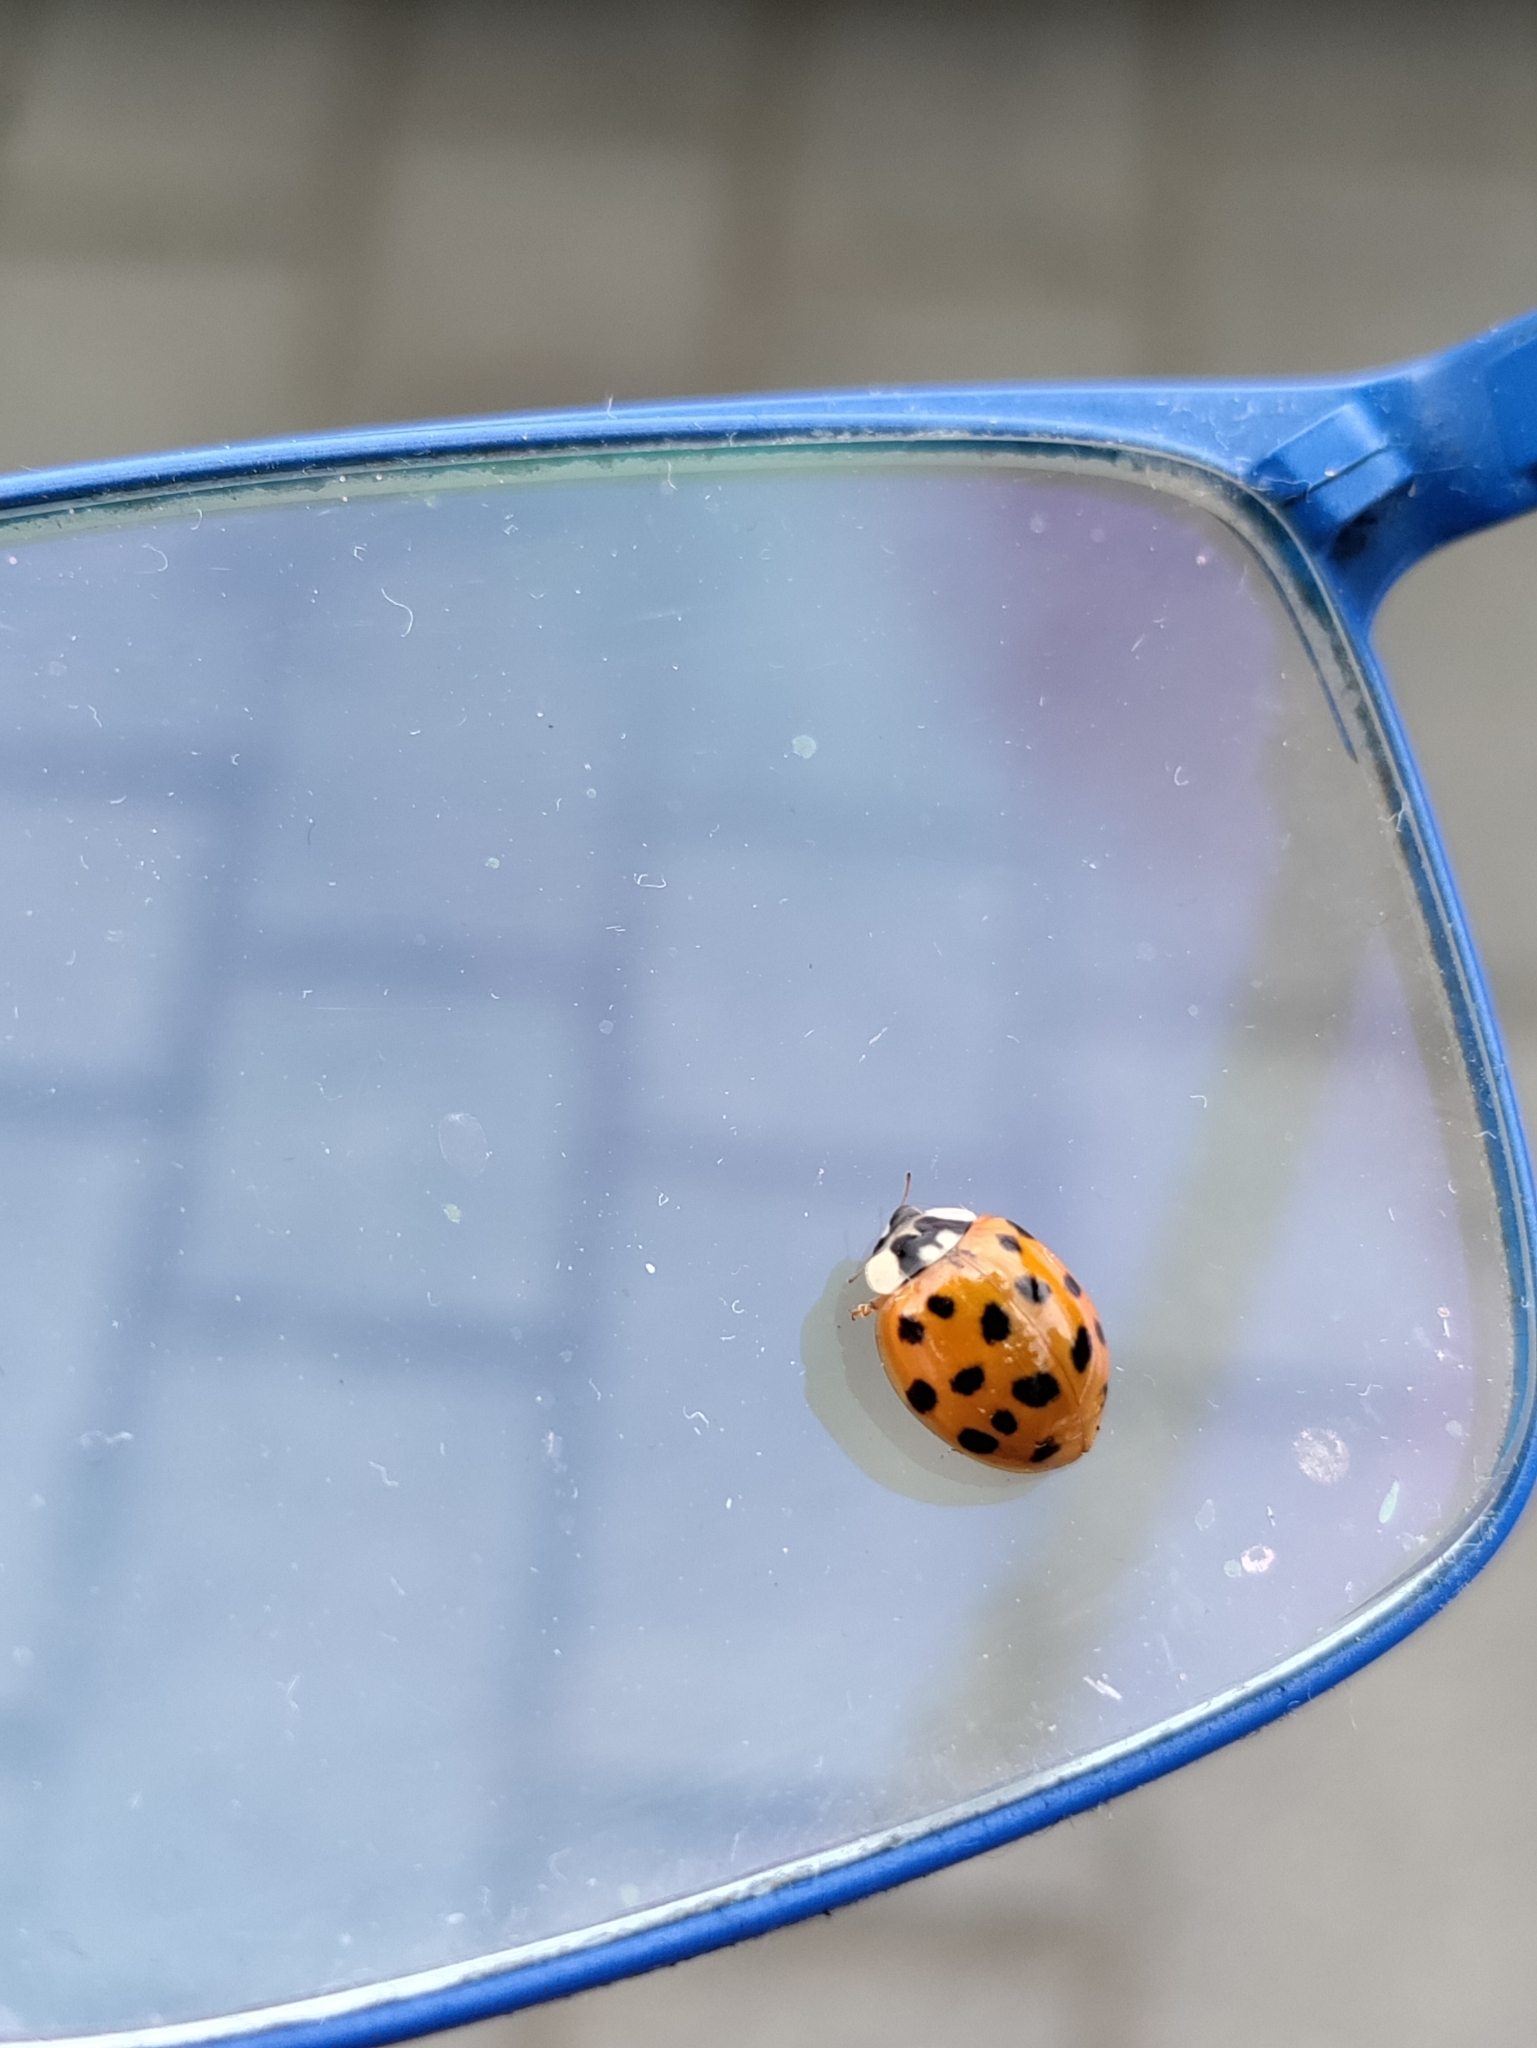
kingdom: Animalia
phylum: Arthropoda
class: Insecta
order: Coleoptera
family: Coccinellidae
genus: Harmonia
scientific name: Harmonia axyridis
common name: Harlequin ladybird
